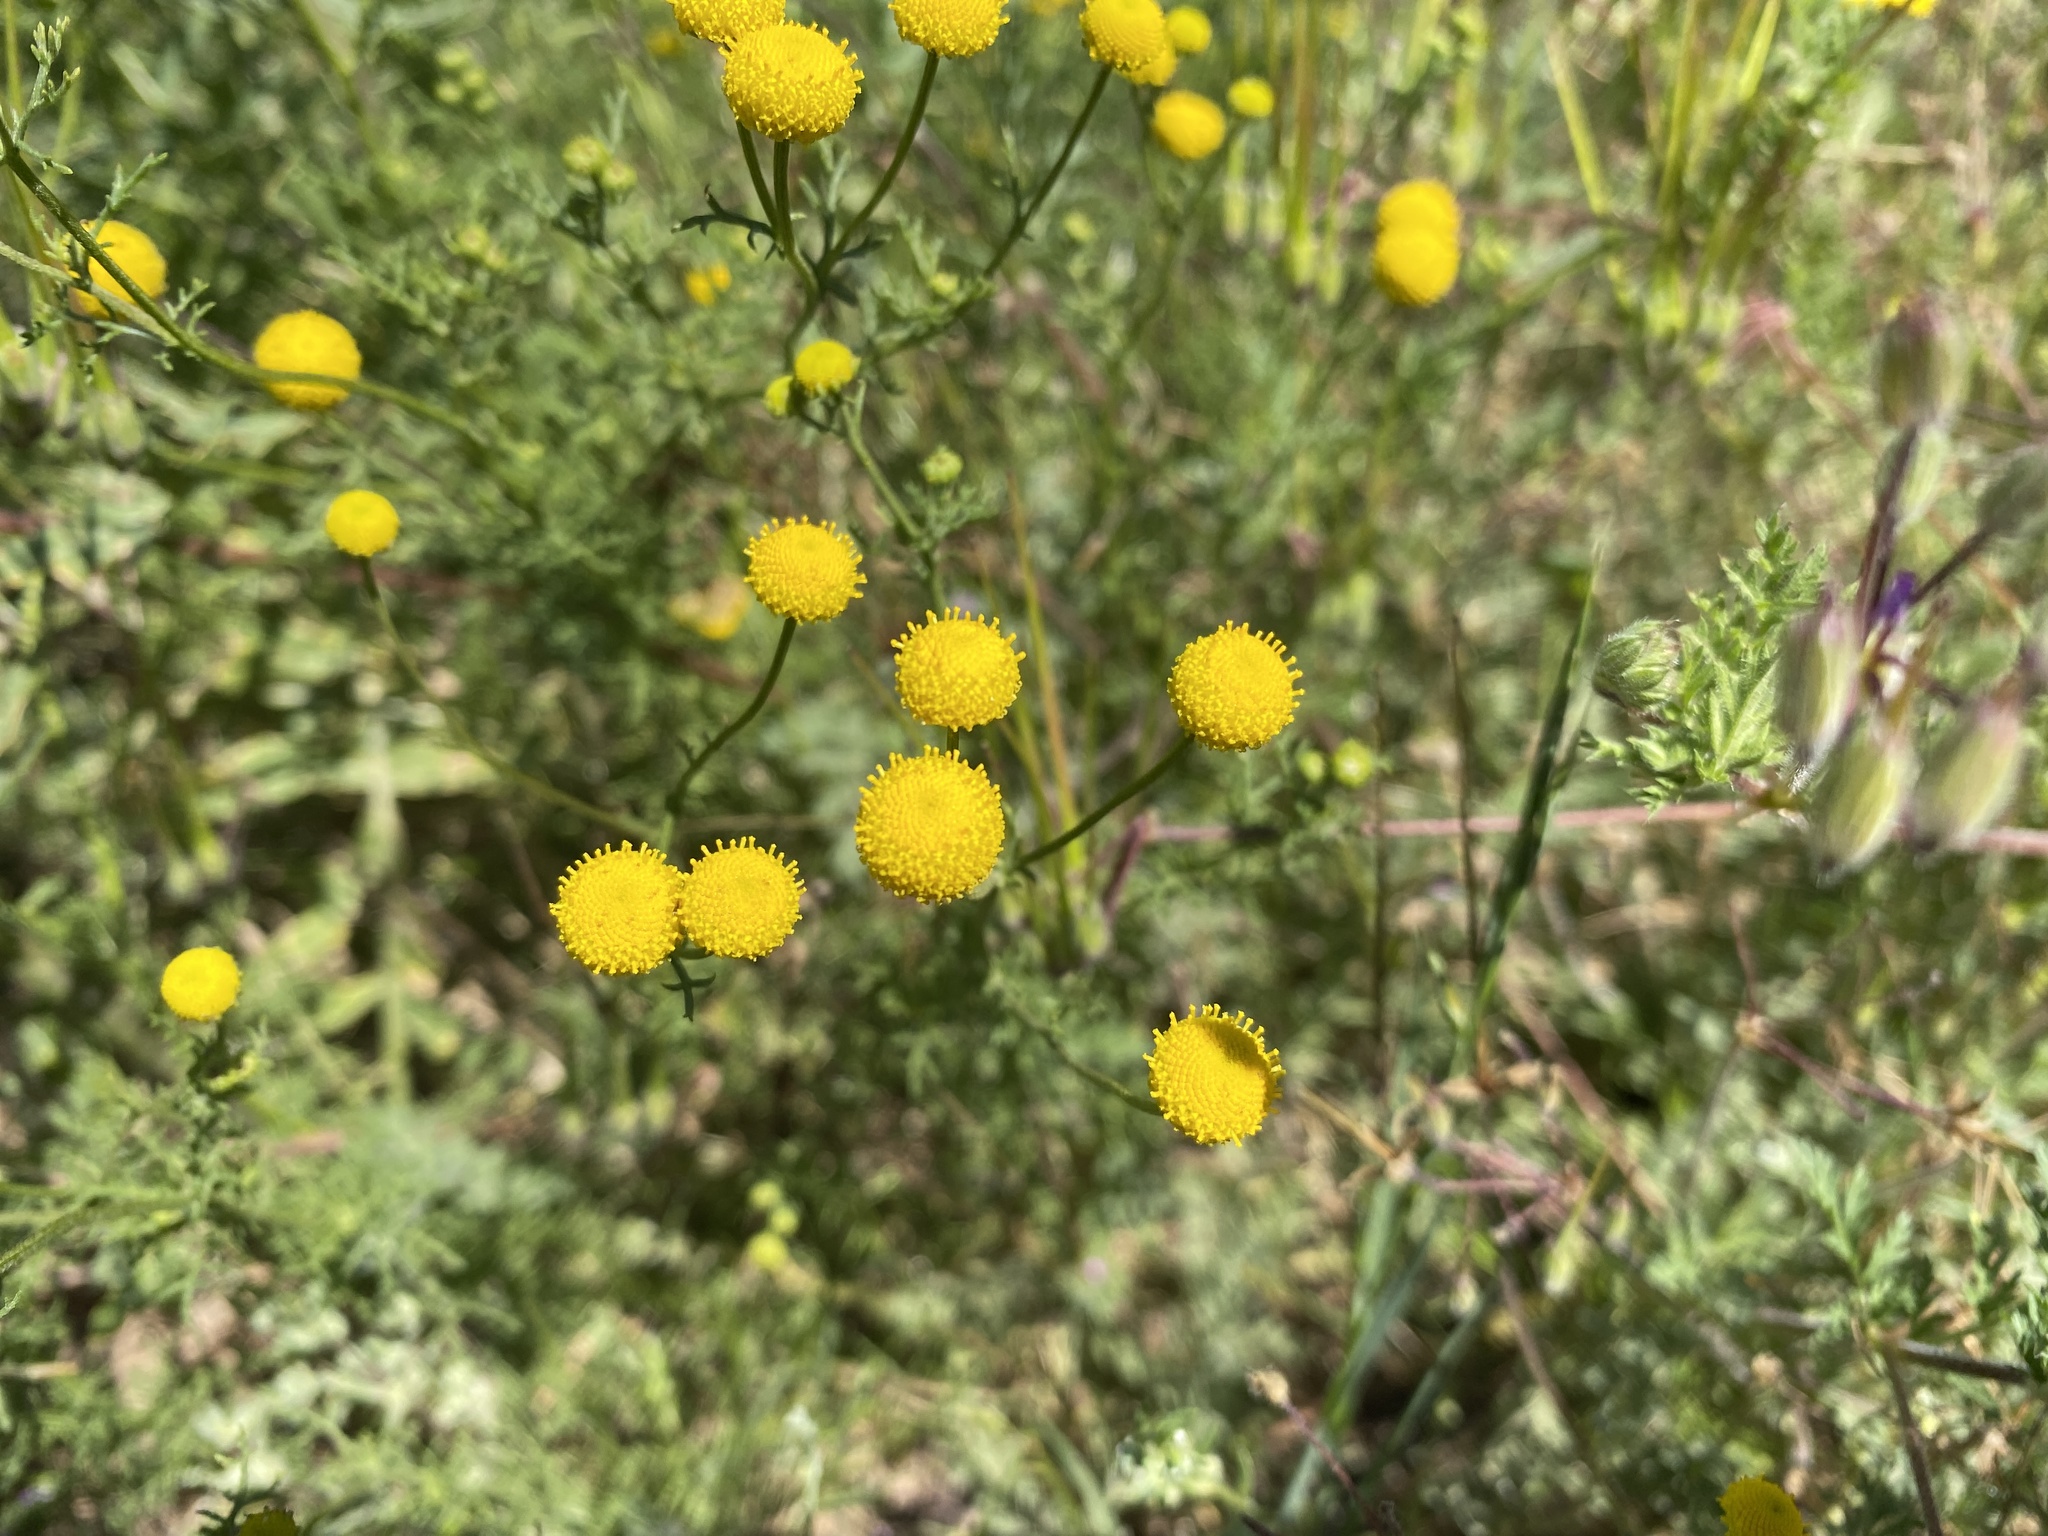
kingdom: Plantae
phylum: Tracheophyta
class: Magnoliopsida
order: Asterales
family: Asteraceae
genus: Oncosiphon
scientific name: Oncosiphon pilulifer
